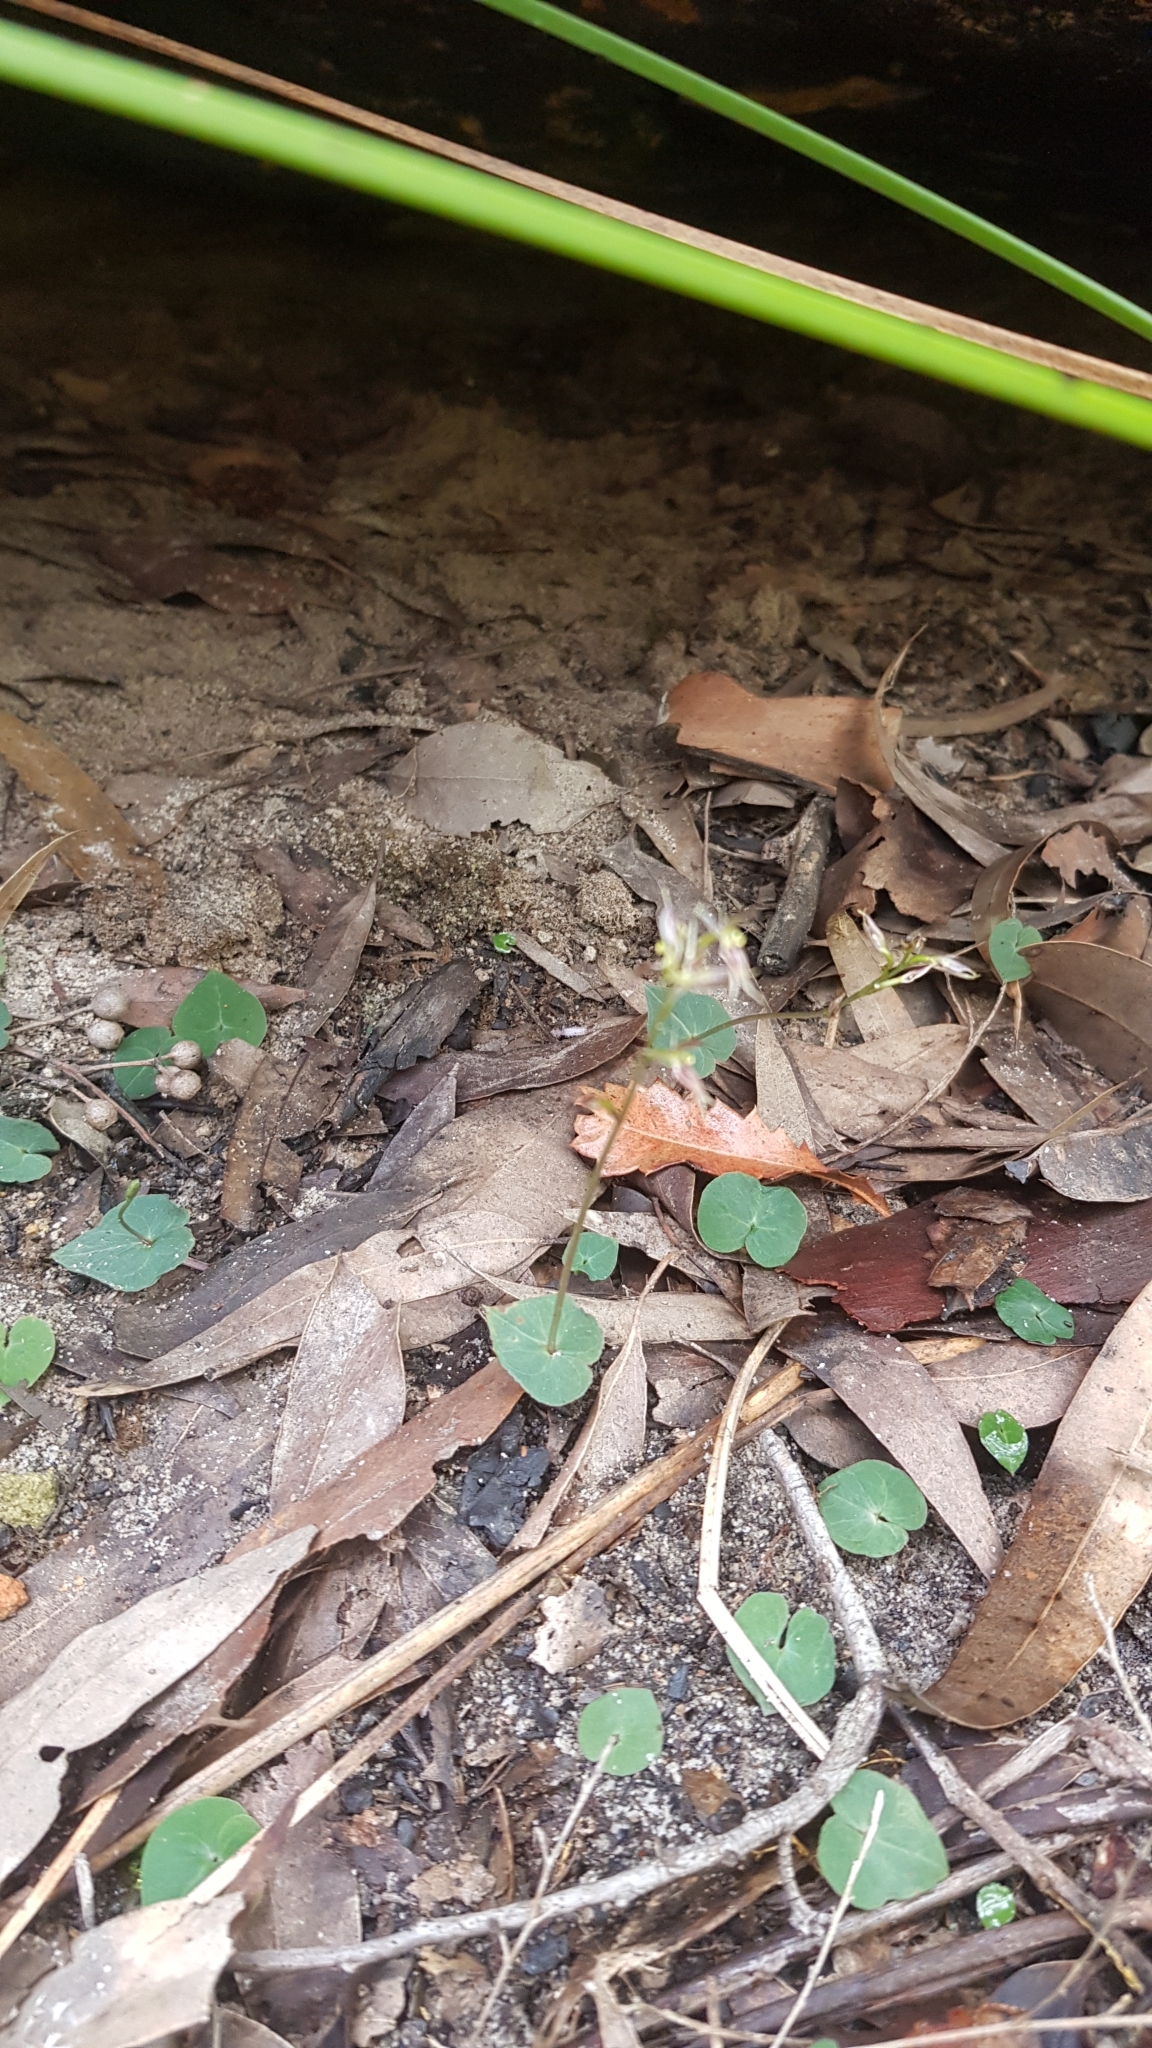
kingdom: Plantae
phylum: Tracheophyta
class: Liliopsida
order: Asparagales
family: Orchidaceae
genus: Acianthus
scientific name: Acianthus pusillus
